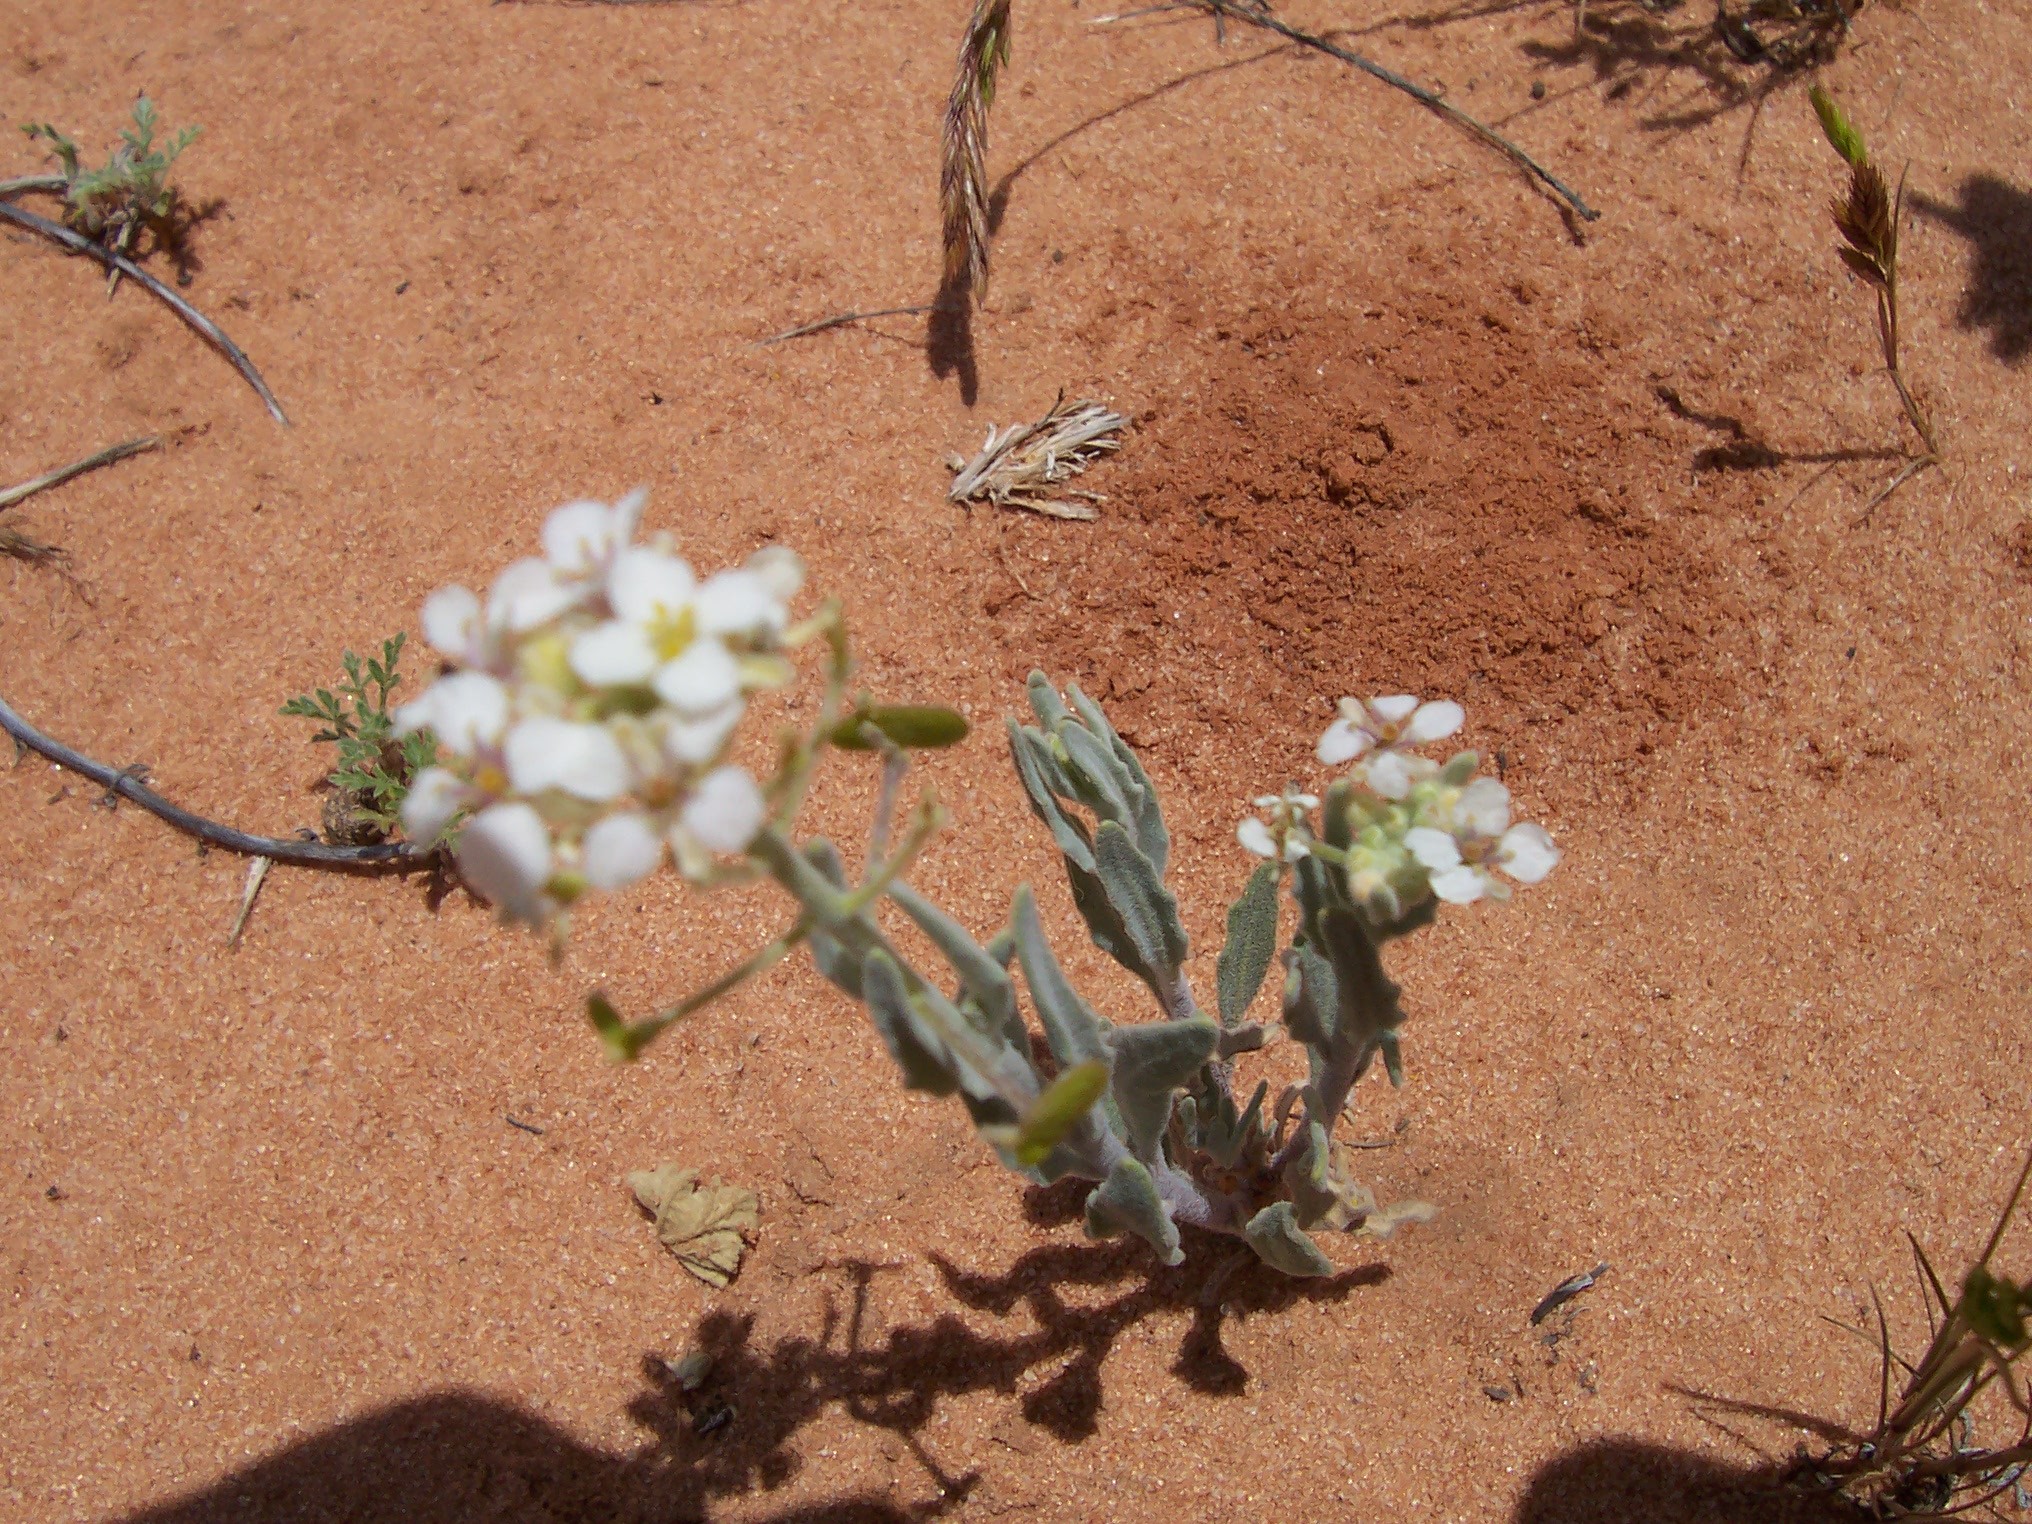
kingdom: Plantae
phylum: Tracheophyta
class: Magnoliopsida
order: Brassicales
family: Brassicaceae
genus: Dimorphocarpa
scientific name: Dimorphocarpa wislizenii
